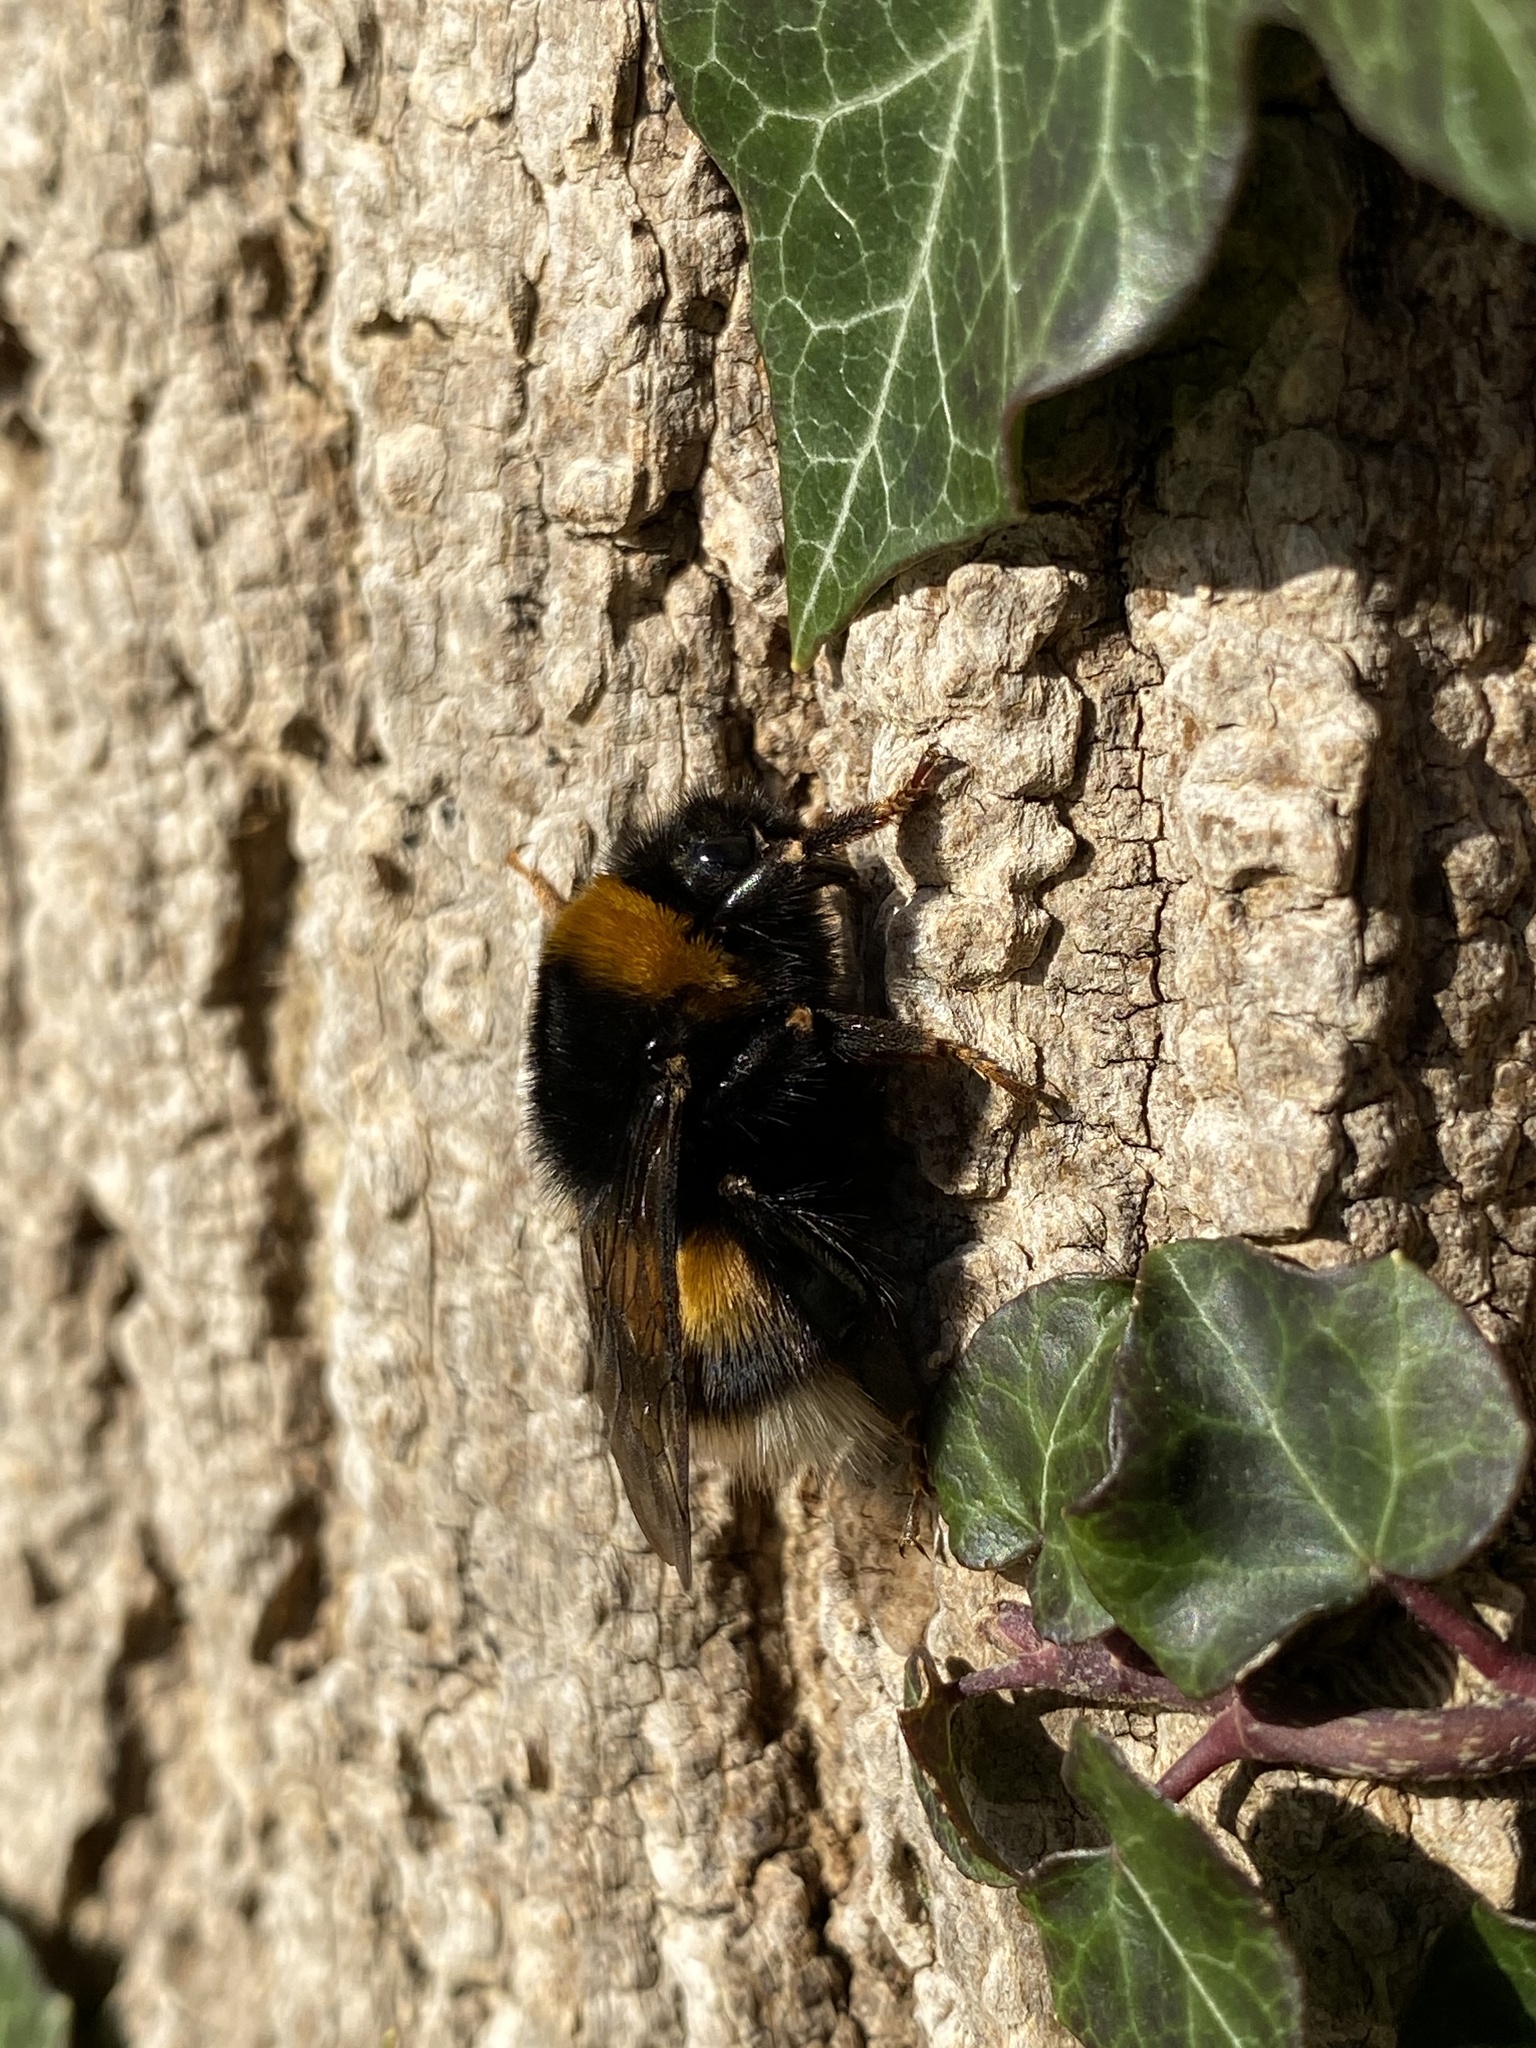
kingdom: Animalia
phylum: Arthropoda
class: Insecta
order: Hymenoptera
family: Apidae
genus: Bombus
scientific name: Bombus terrestris
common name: Buff-tailed bumblebee
